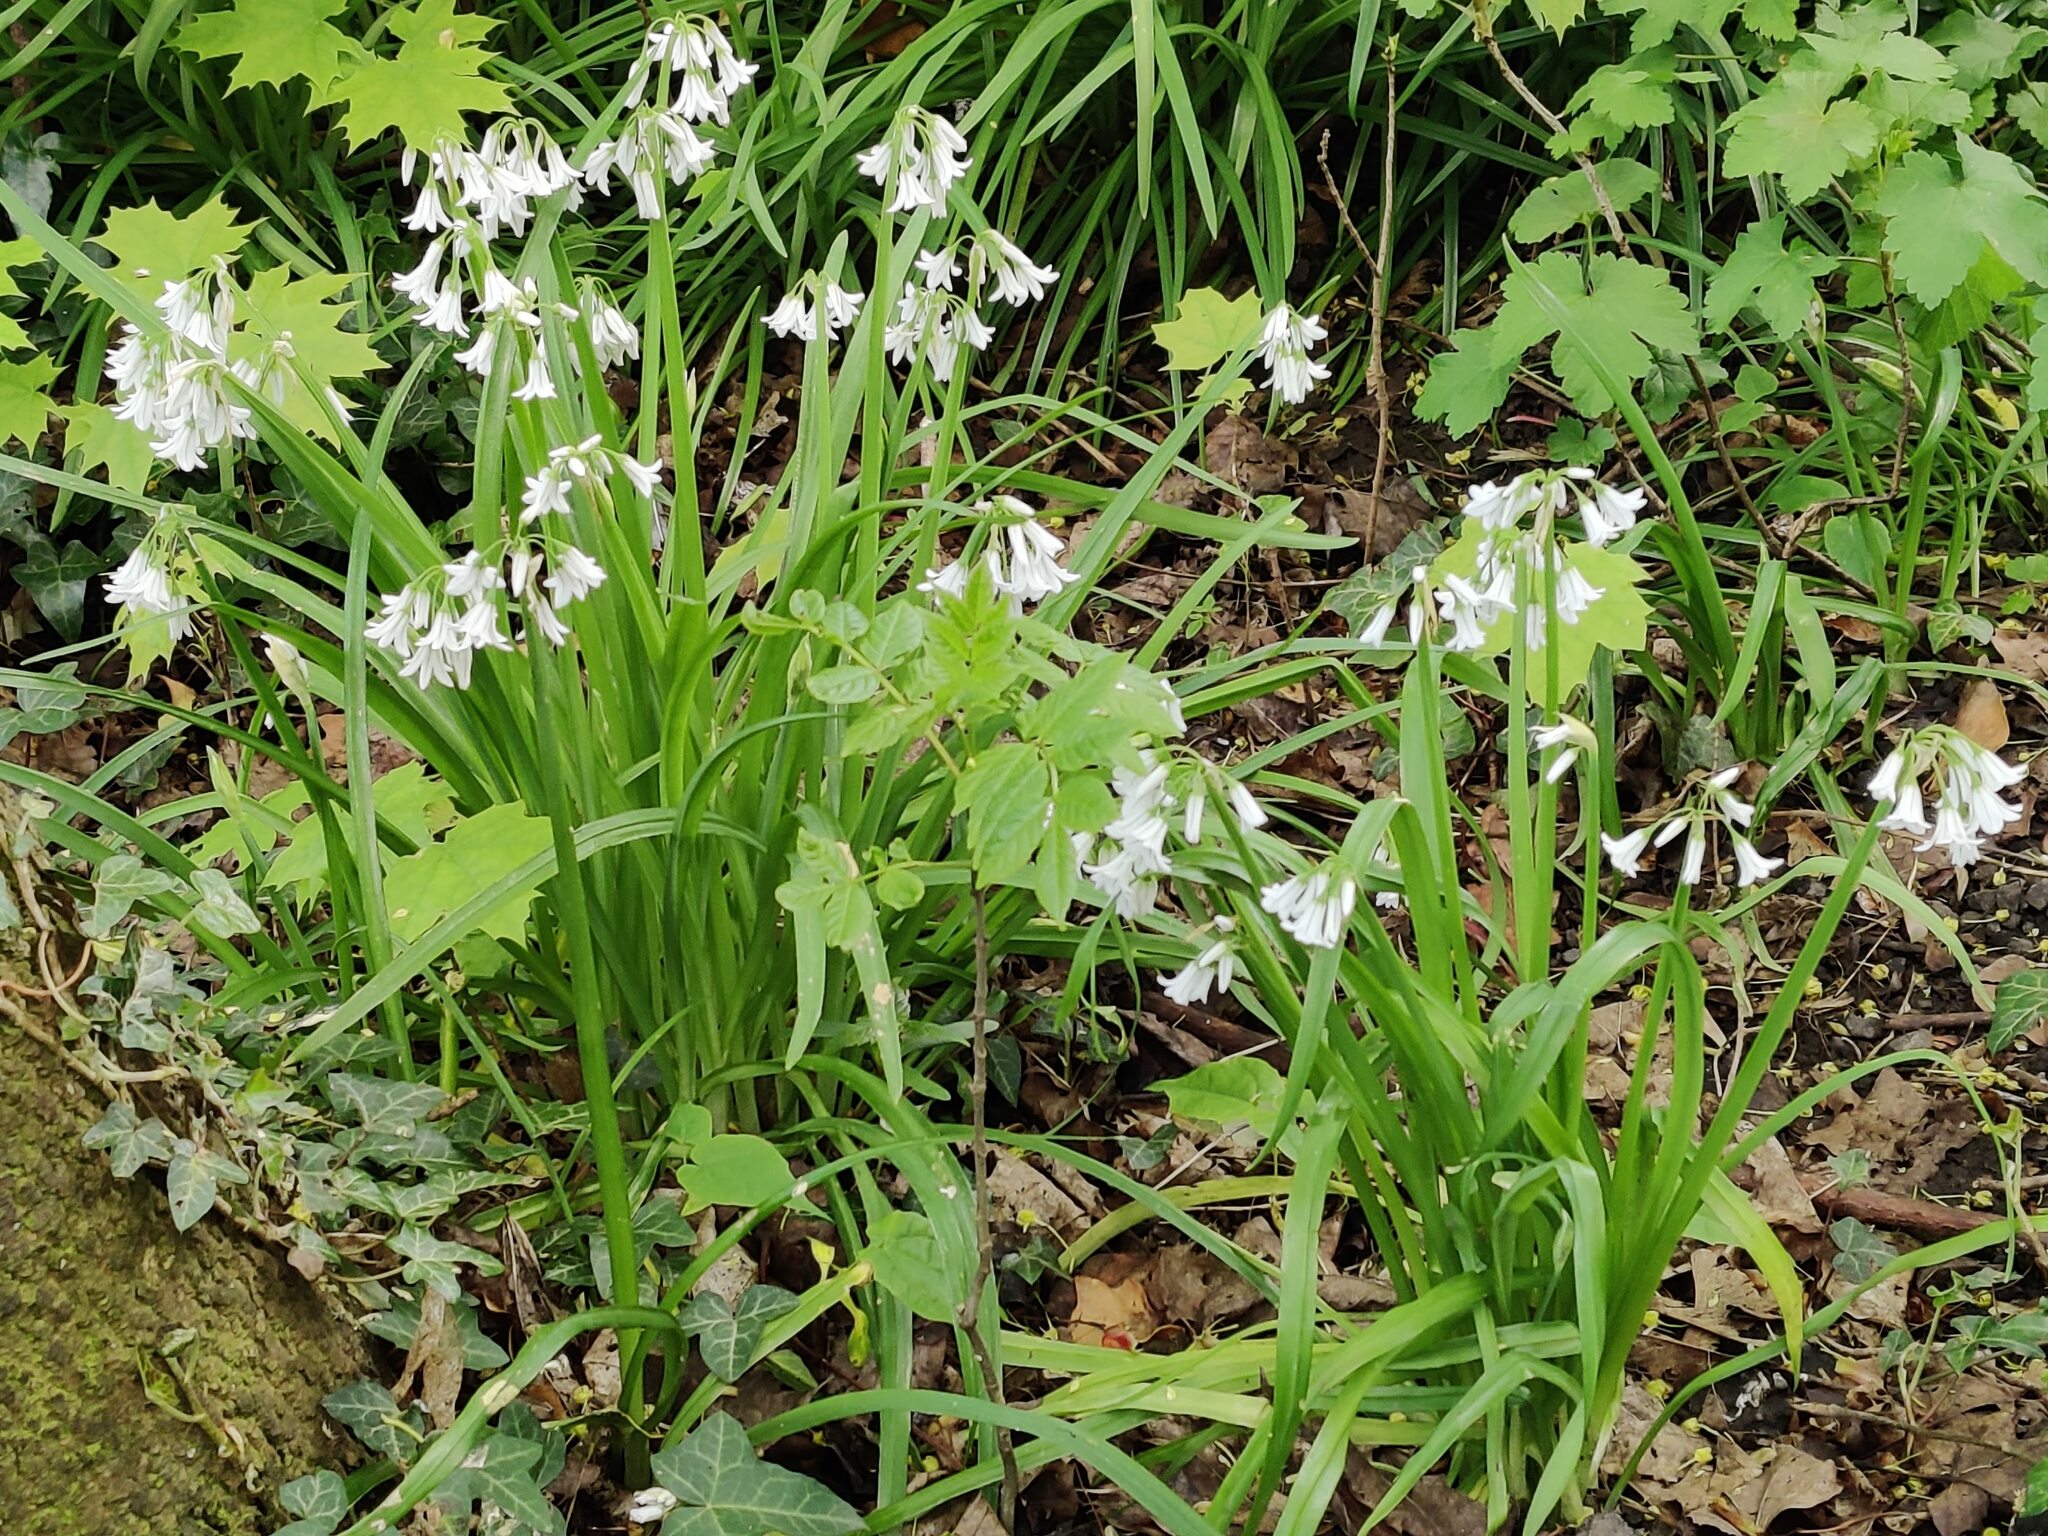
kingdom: Plantae
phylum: Tracheophyta
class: Liliopsida
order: Asparagales
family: Amaryllidaceae
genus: Allium
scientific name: Allium triquetrum
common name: Three-cornered garlic
